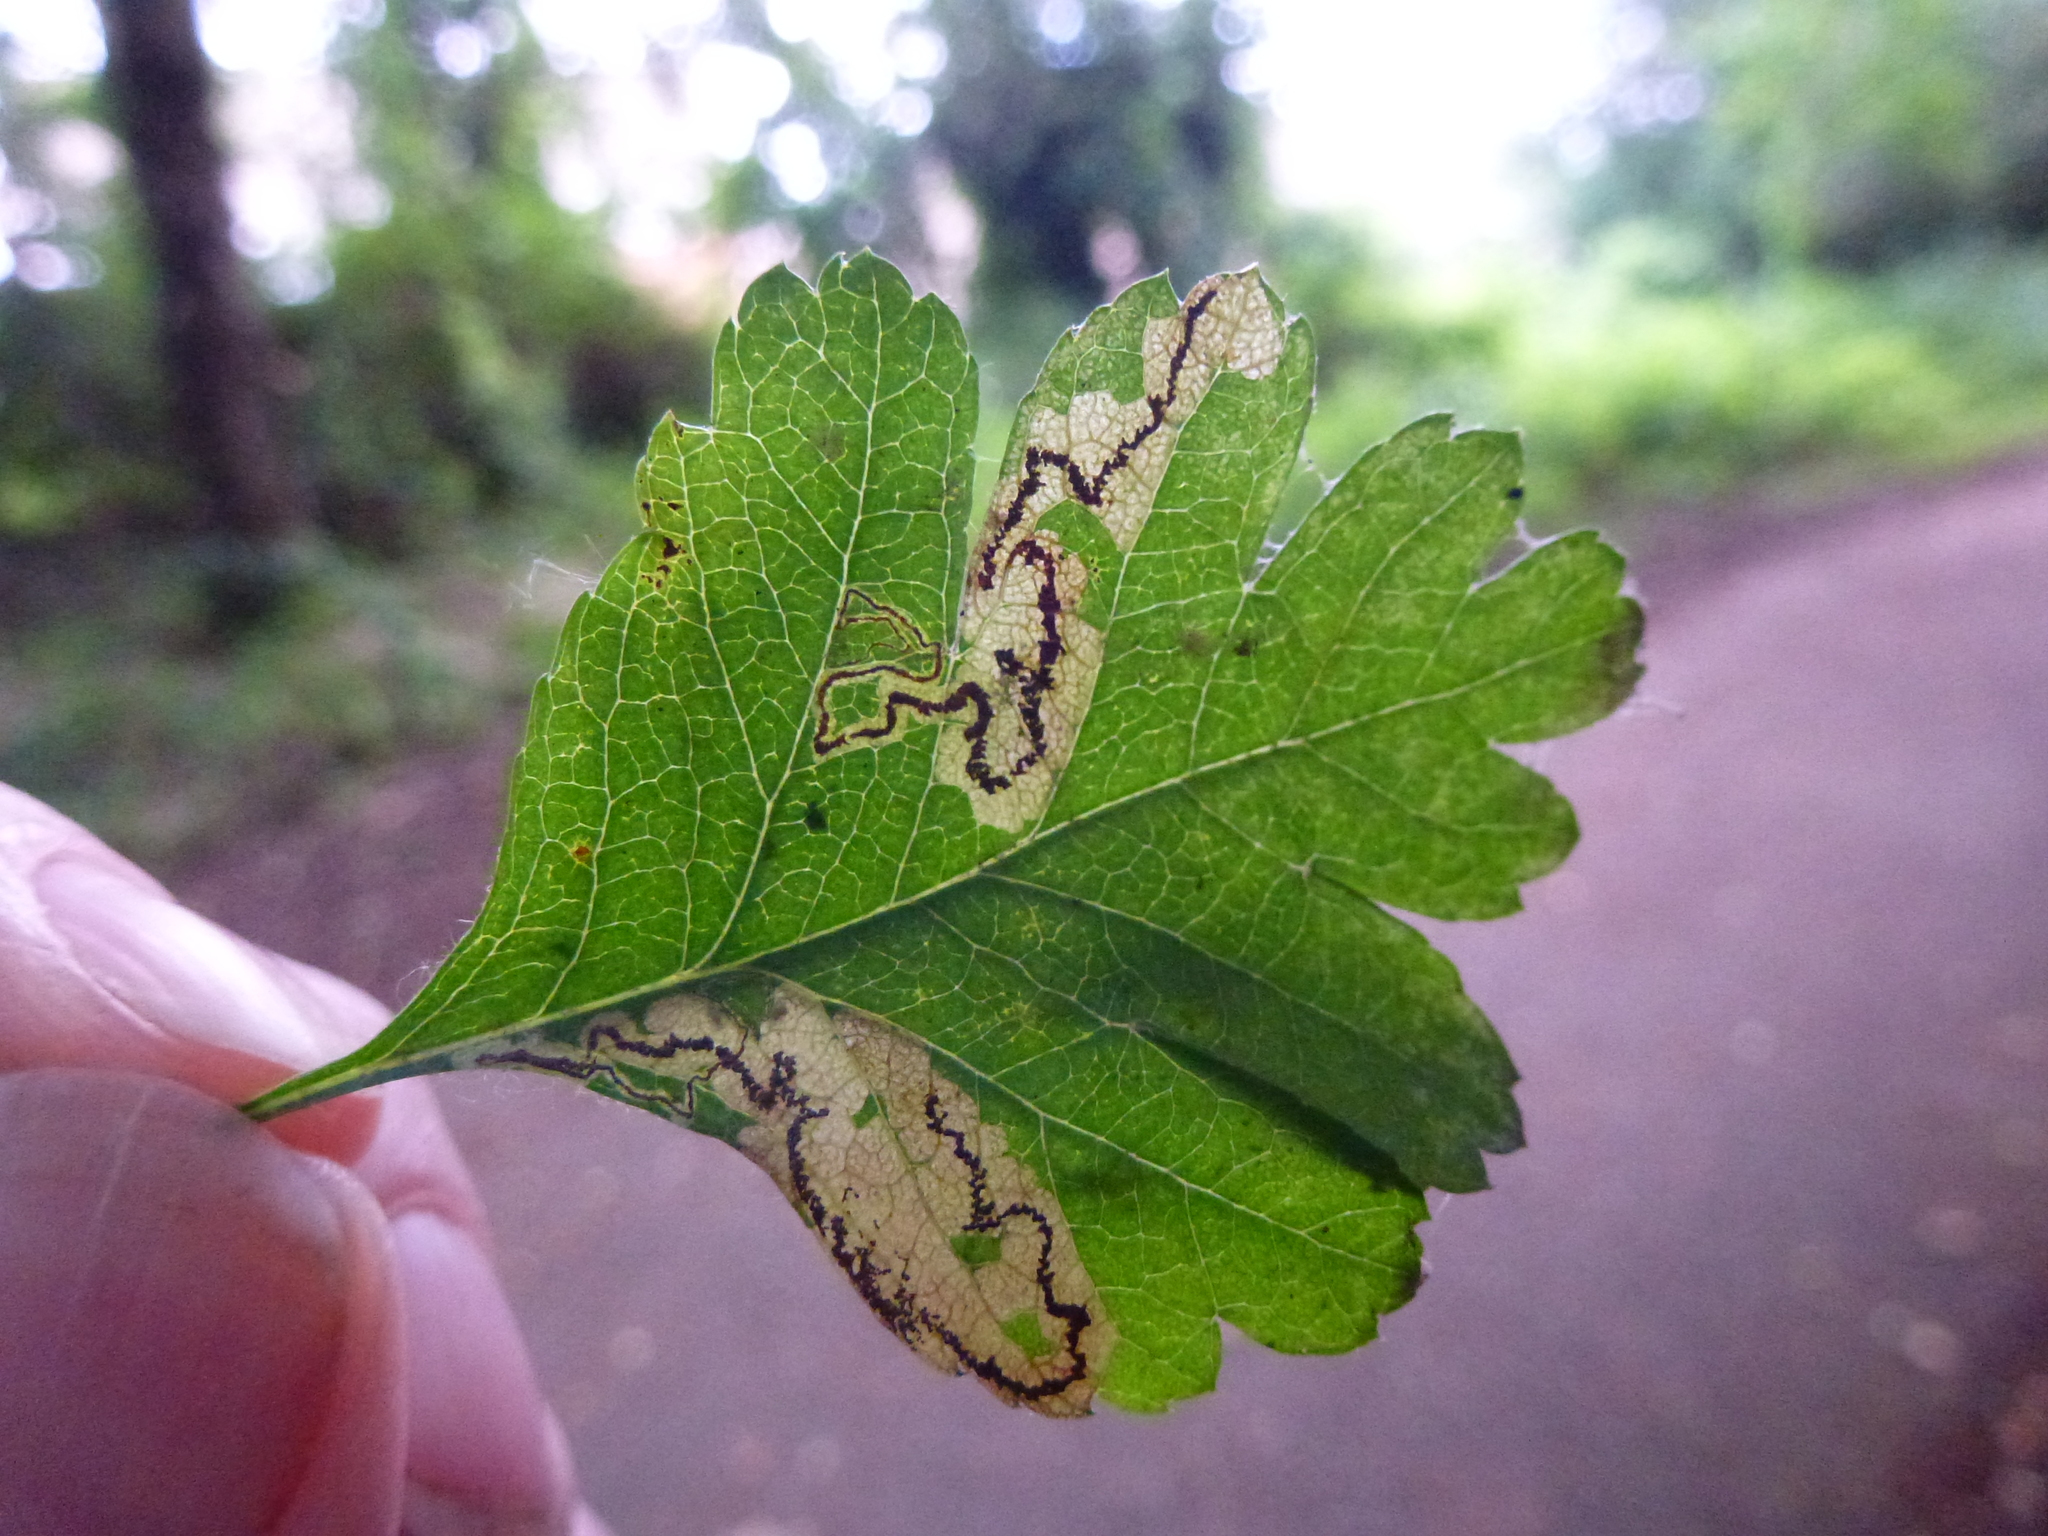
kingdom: Animalia
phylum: Arthropoda
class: Insecta
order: Lepidoptera
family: Nepticulidae
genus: Stigmella
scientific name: Stigmella regiella
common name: Purple-shot pigmy
